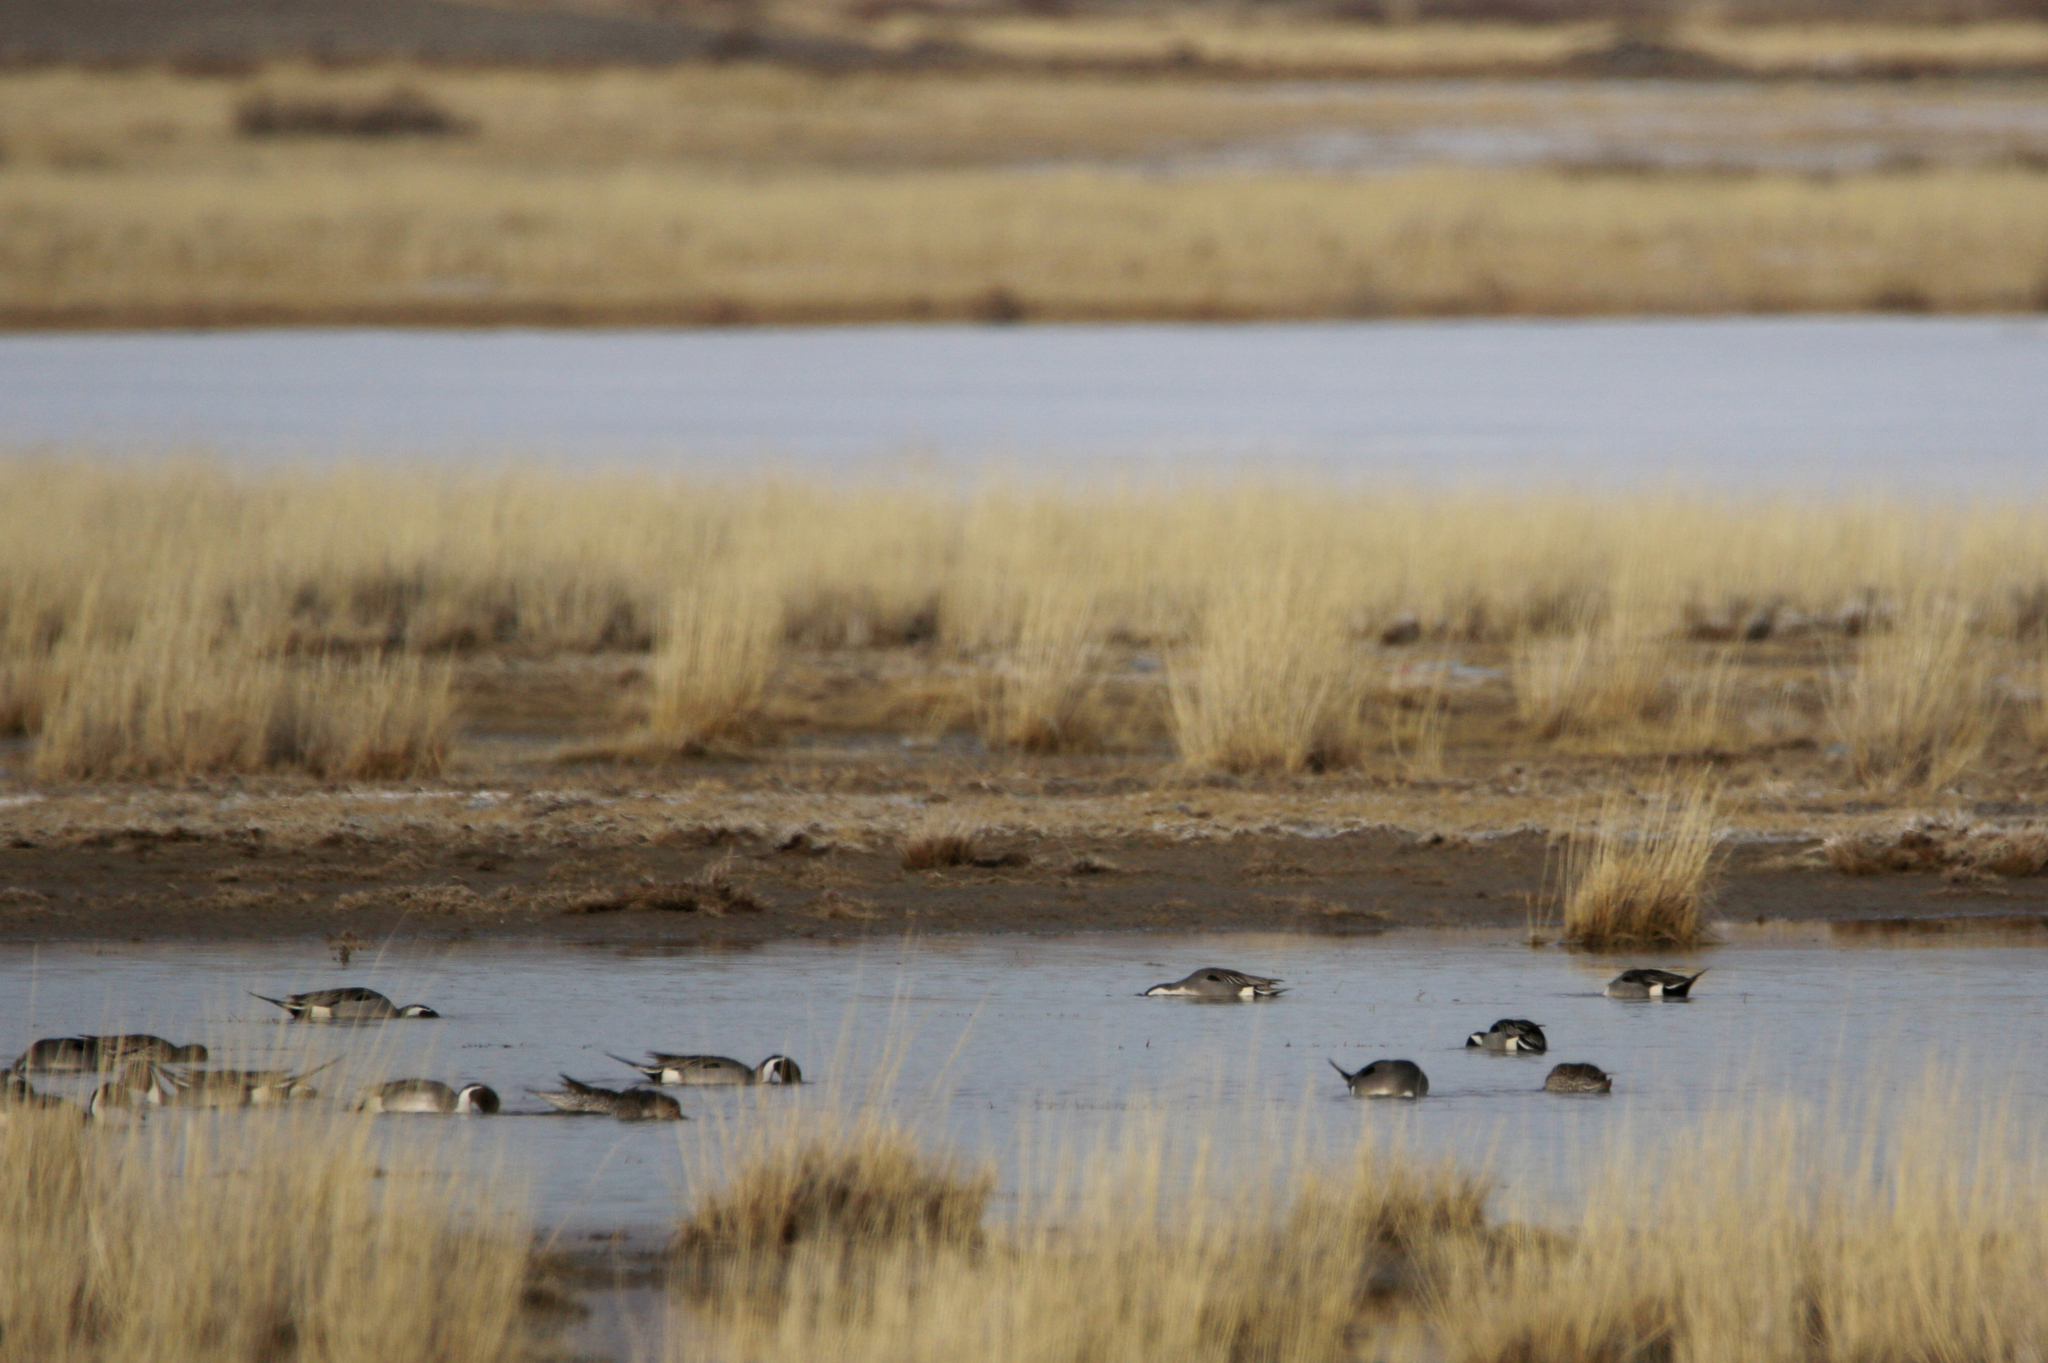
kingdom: Animalia
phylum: Chordata
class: Aves
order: Anseriformes
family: Anatidae
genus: Anas
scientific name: Anas acuta
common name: Northern pintail
